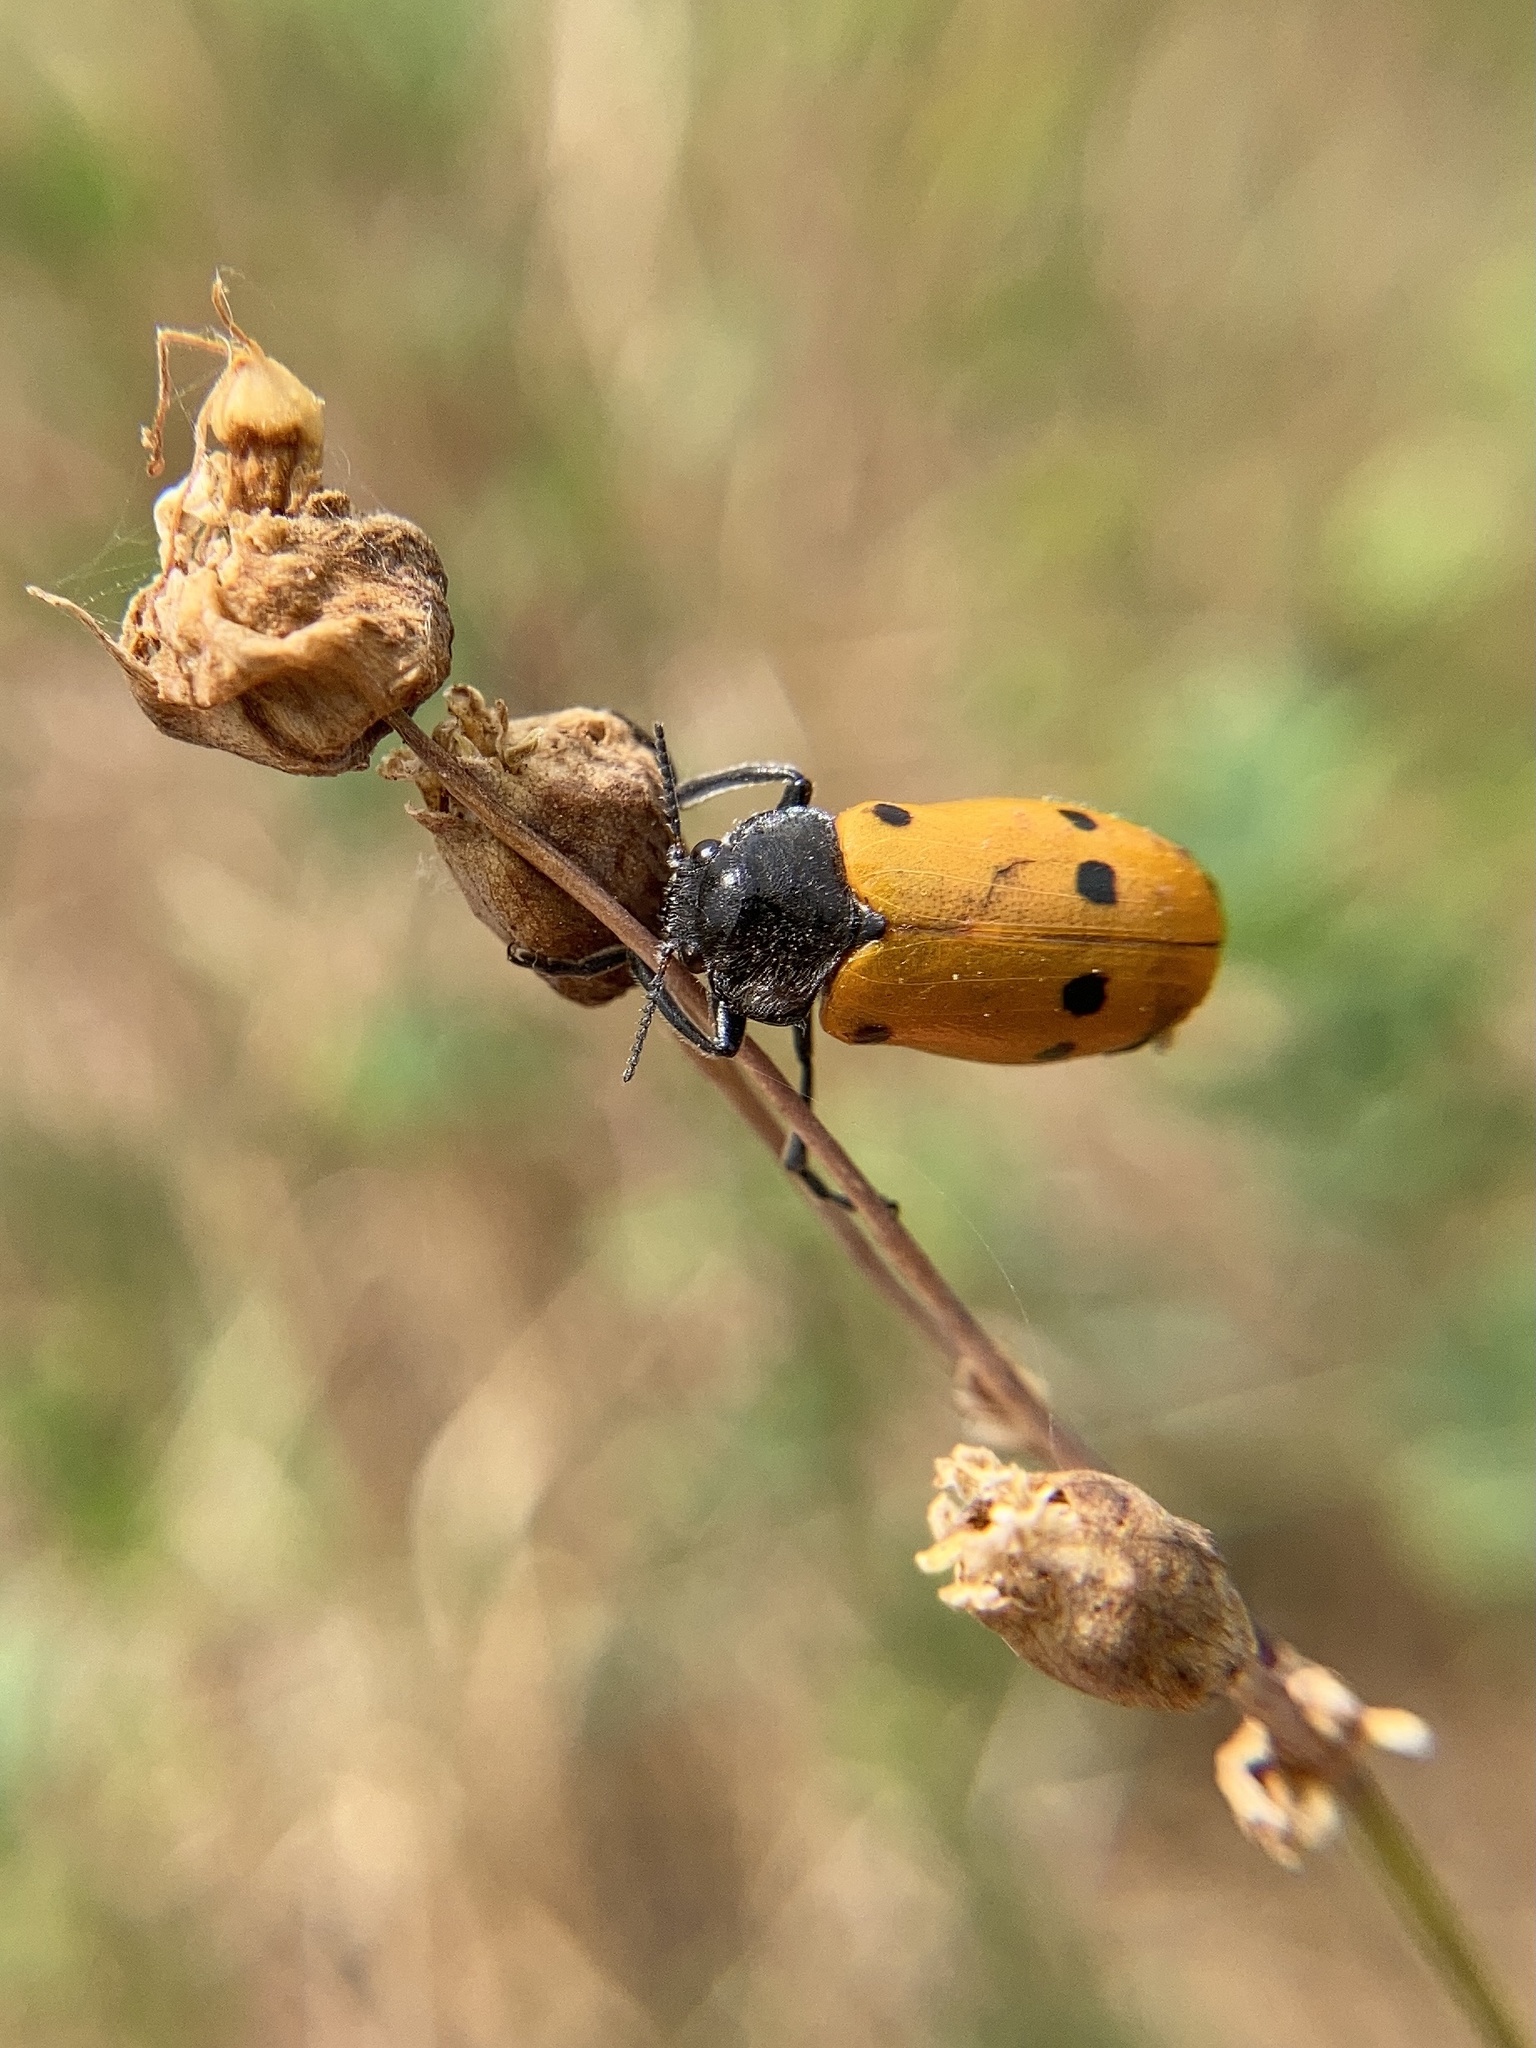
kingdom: Animalia
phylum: Arthropoda
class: Insecta
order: Coleoptera
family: Chrysomelidae
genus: Lachnaia
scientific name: Lachnaia italica
